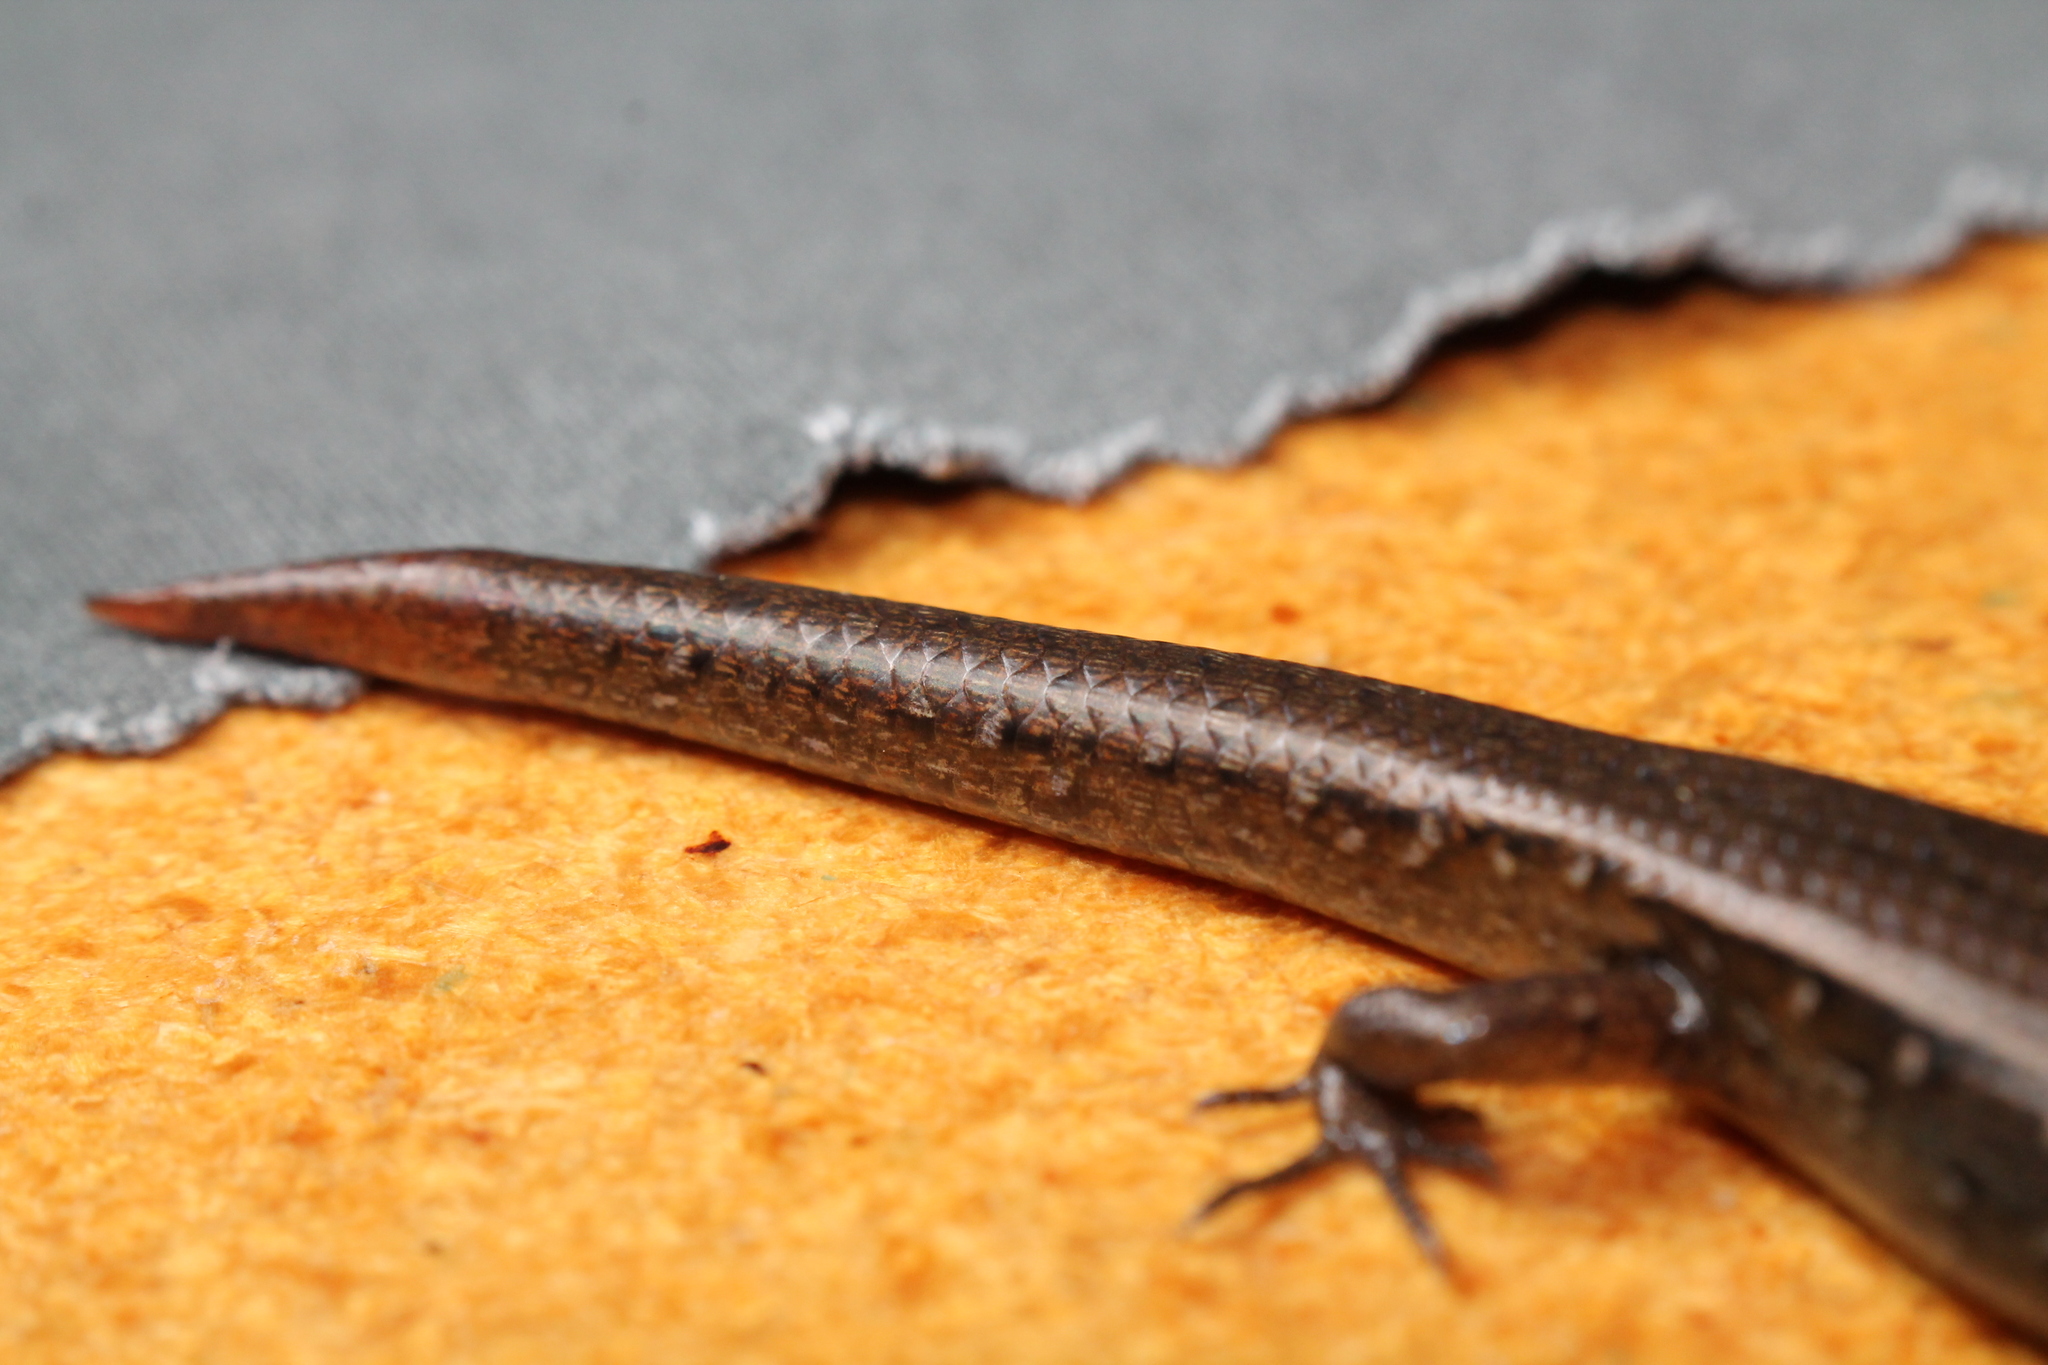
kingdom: Animalia
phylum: Chordata
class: Squamata
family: Scincidae
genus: Oligosoma
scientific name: Oligosoma aeneum
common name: Copper skink
